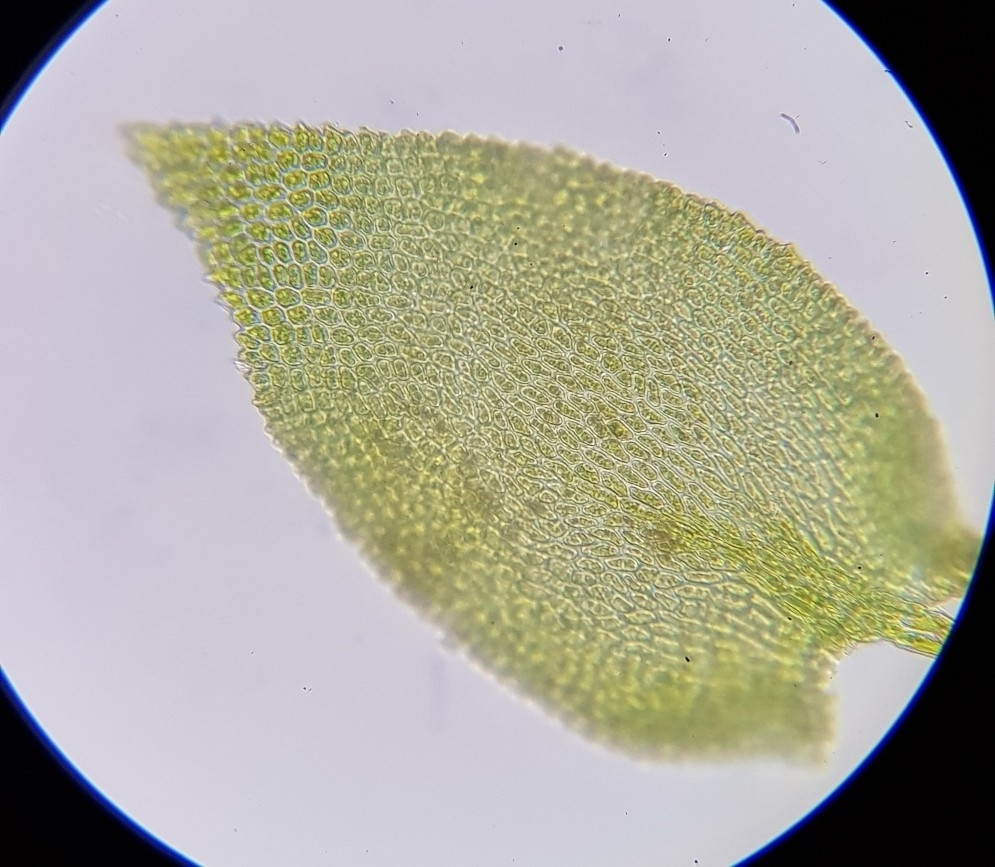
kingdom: Plantae
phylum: Bryophyta
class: Bryopsida
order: Hypnales
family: Lembophyllaceae
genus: Heterocladium
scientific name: Heterocladium heteropterum
